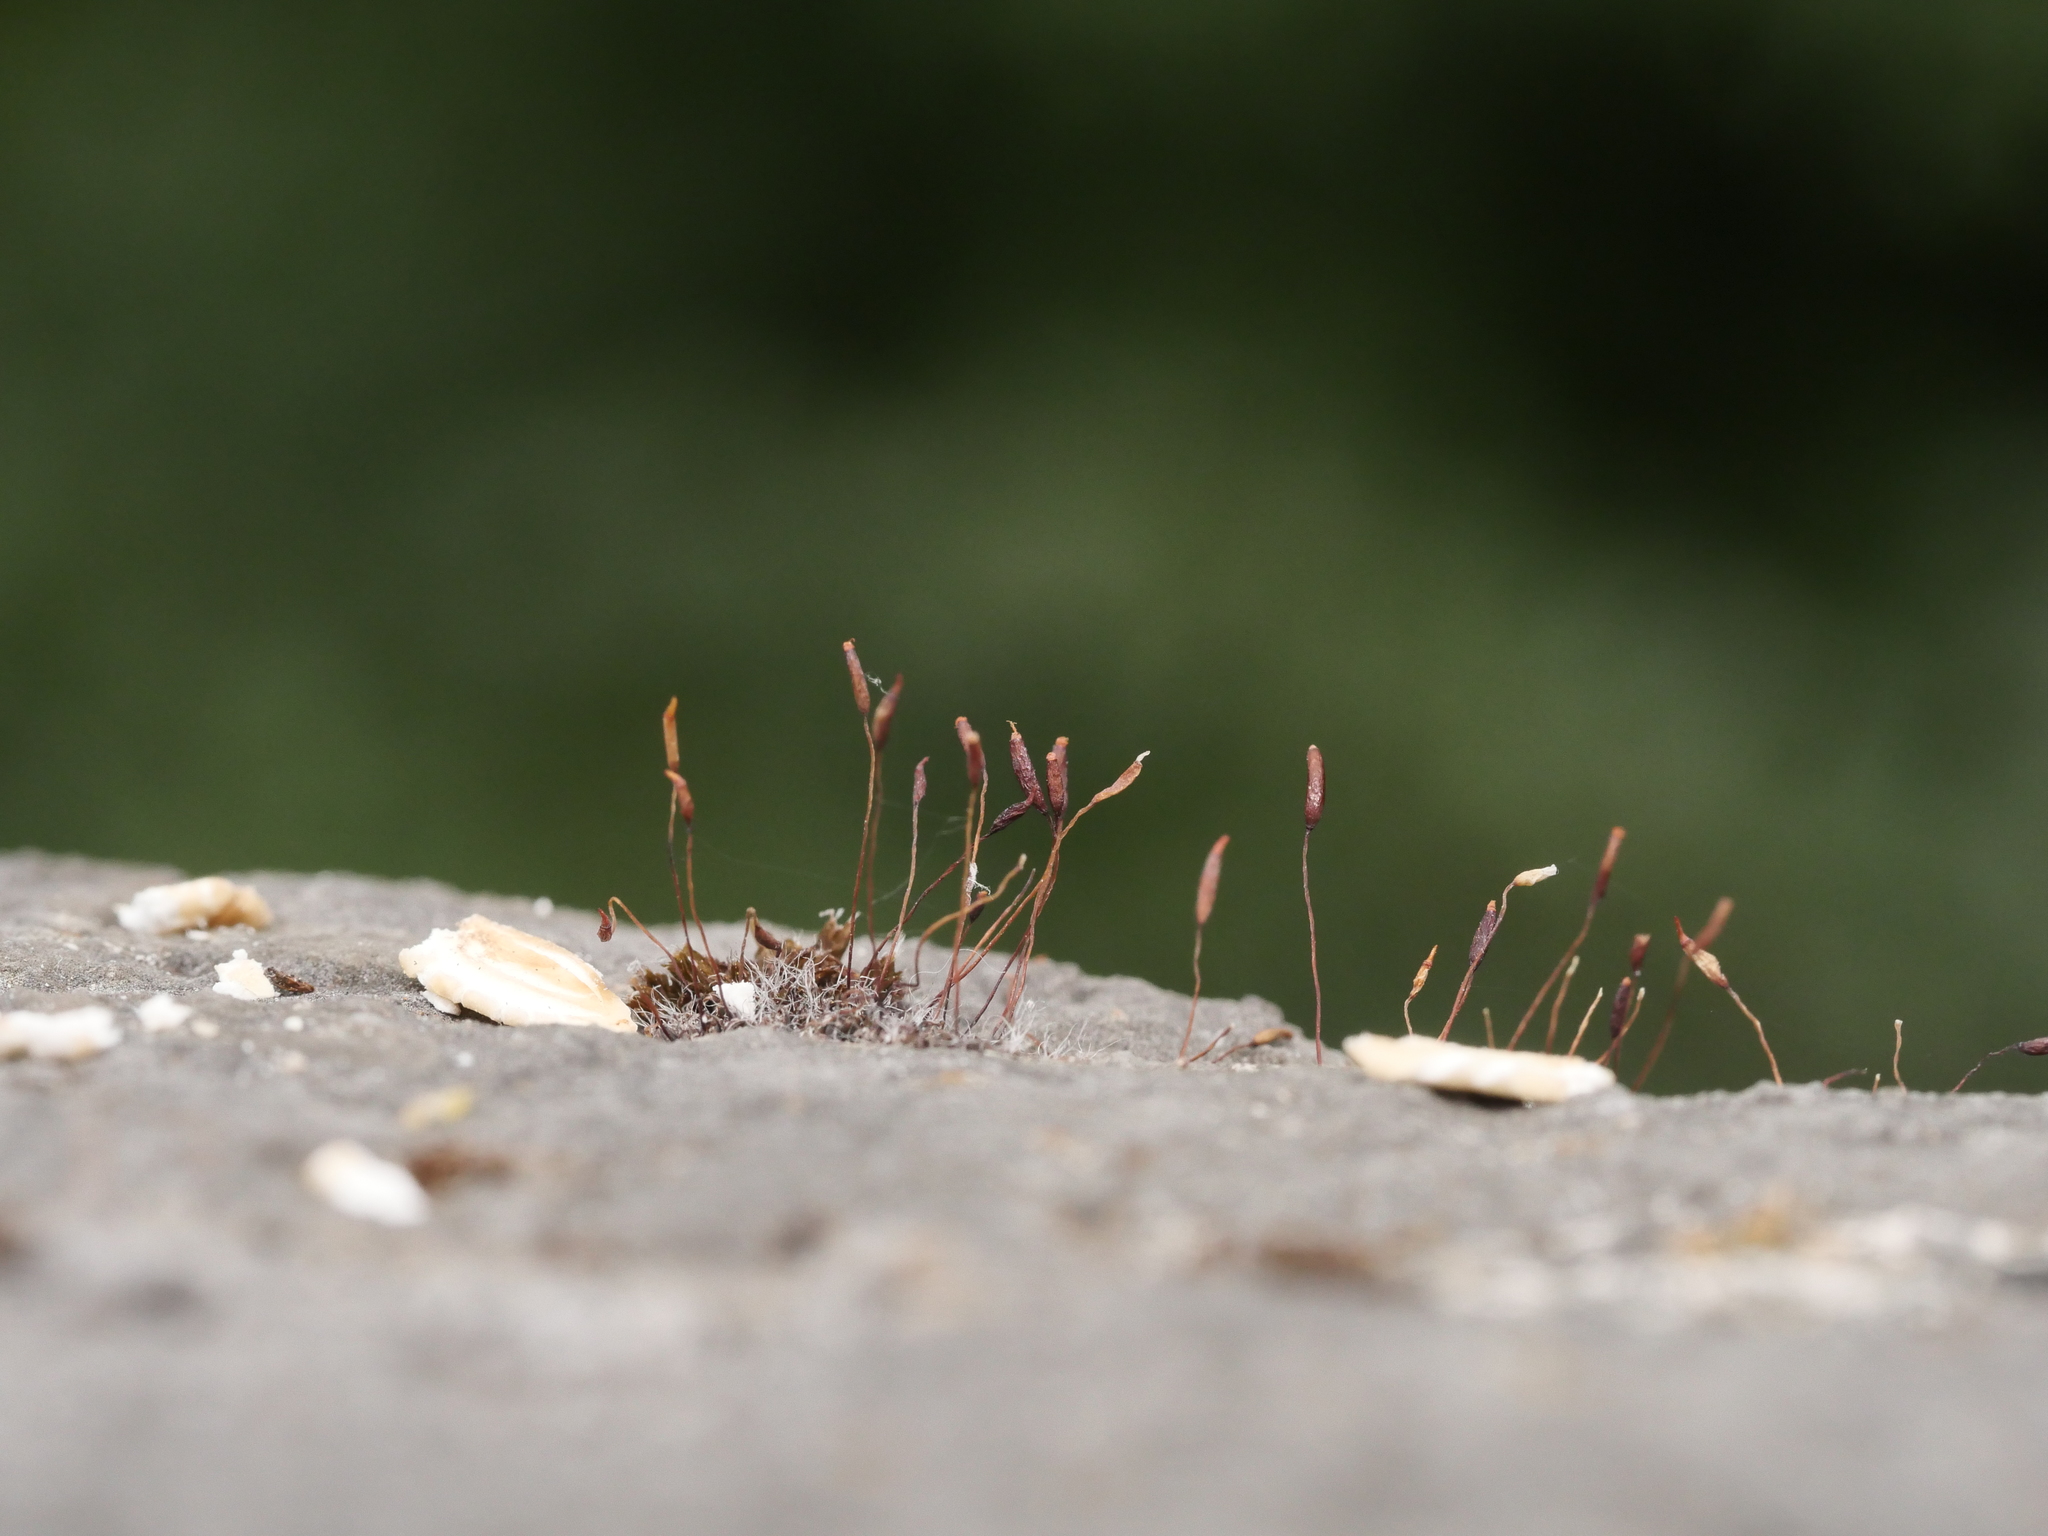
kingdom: Plantae
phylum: Bryophyta
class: Bryopsida
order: Pottiales
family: Pottiaceae
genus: Tortula
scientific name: Tortula muralis
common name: Wall screw-moss
